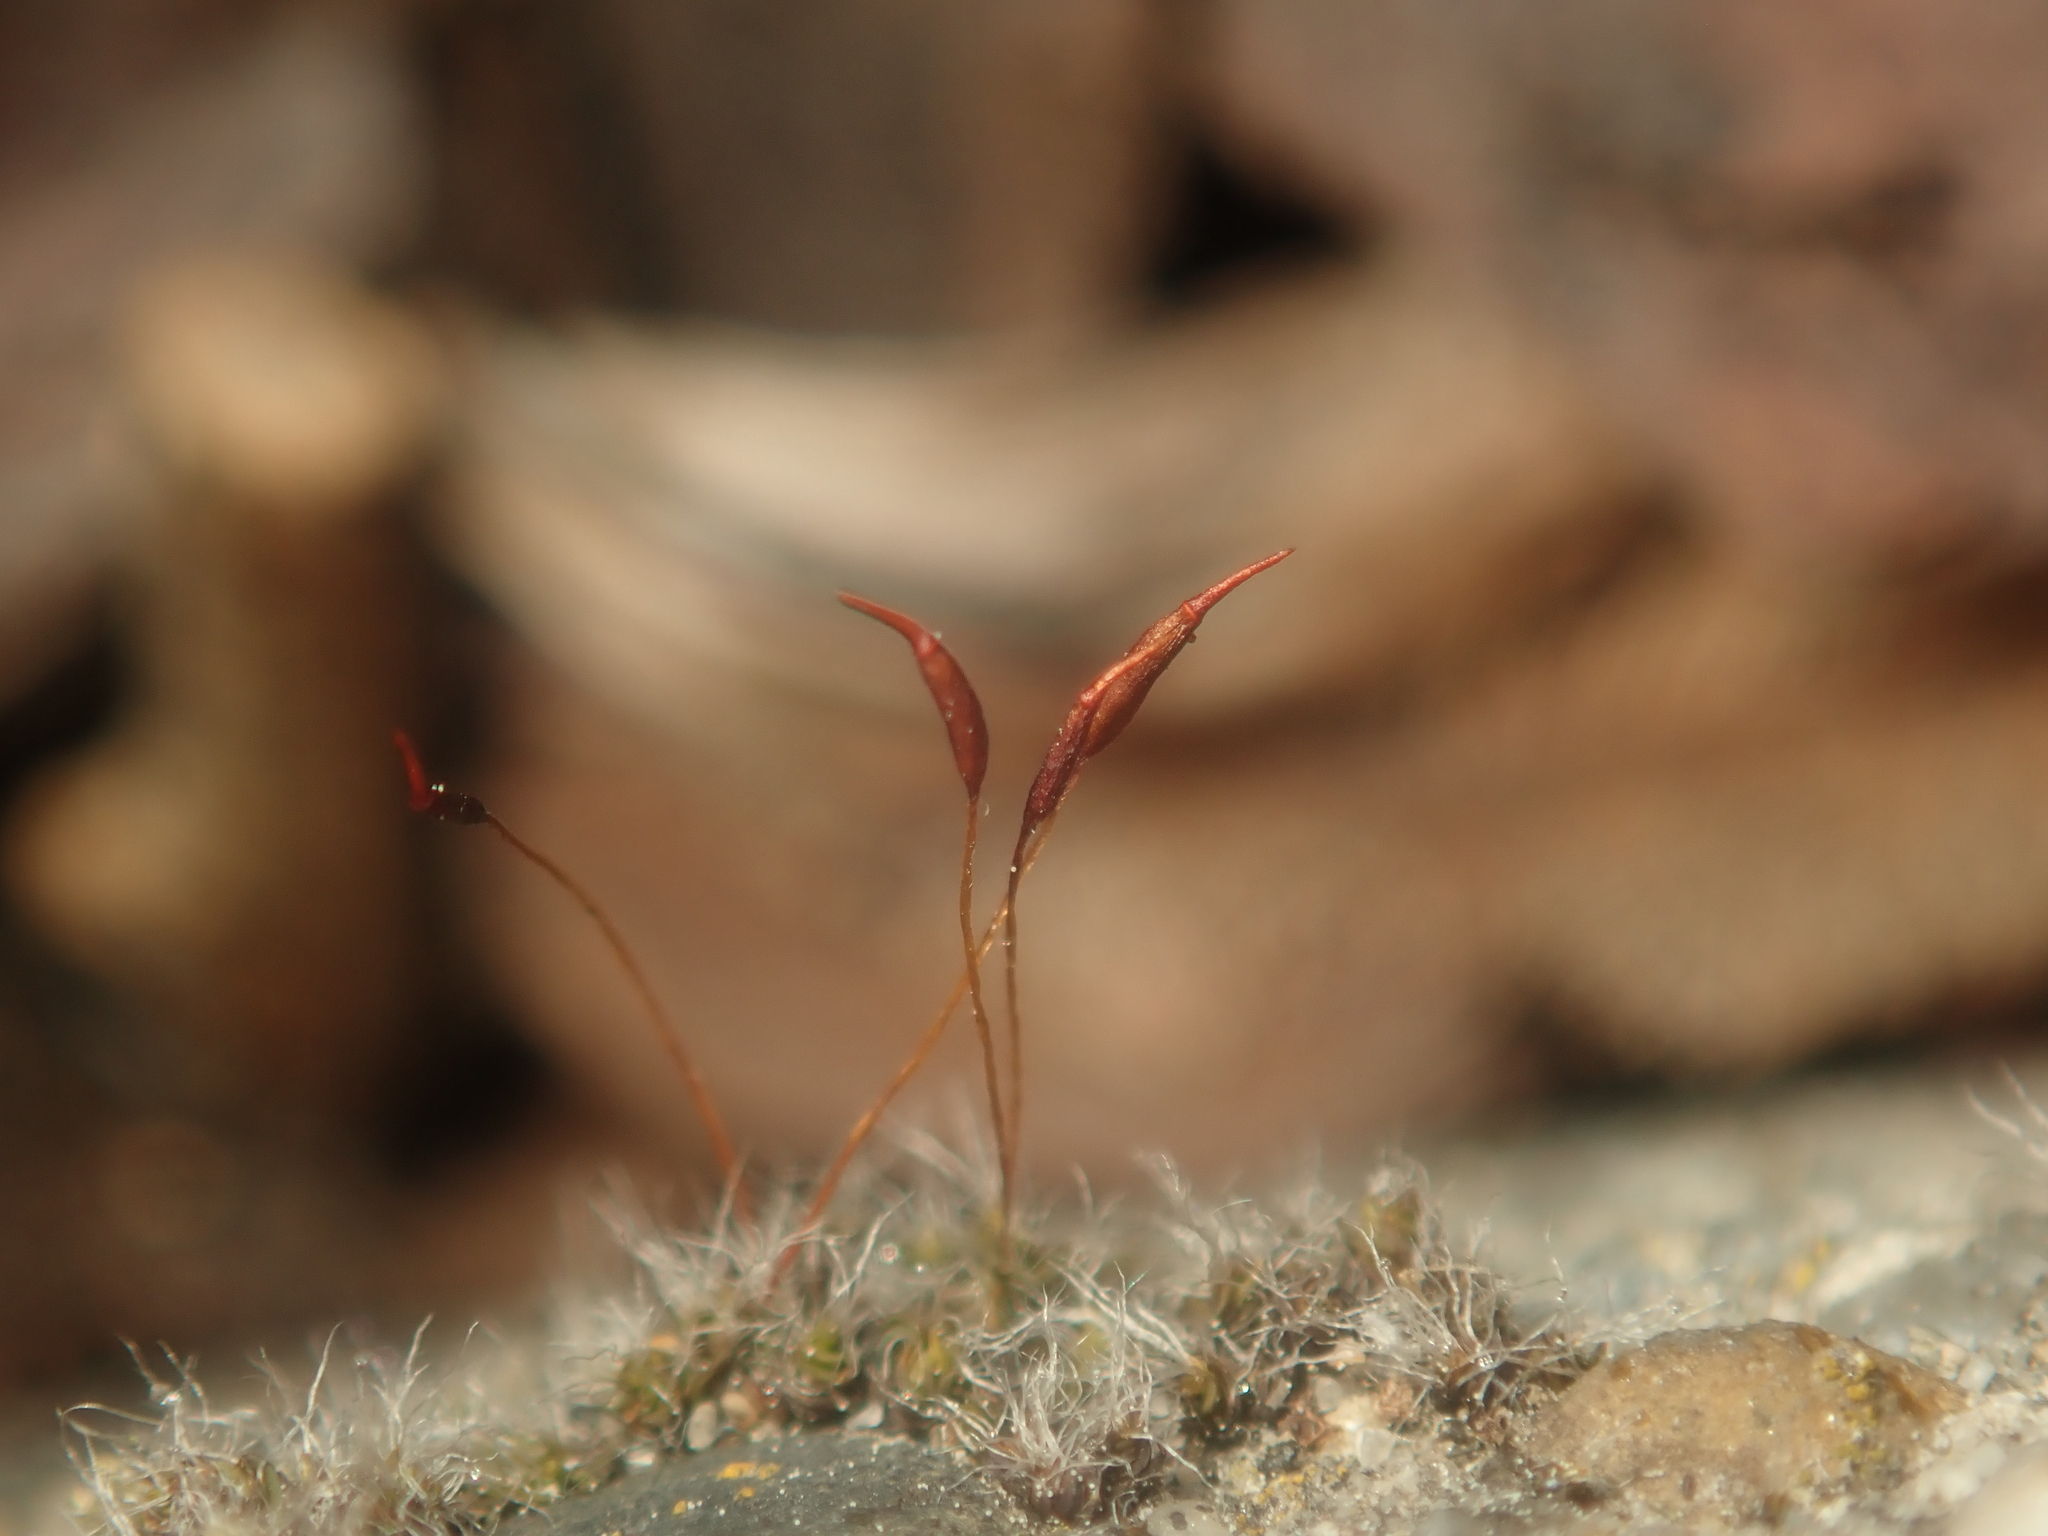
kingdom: Plantae
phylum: Bryophyta
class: Bryopsida
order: Pottiales
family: Pottiaceae
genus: Tortula
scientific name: Tortula muralis
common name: Wall screw-moss
